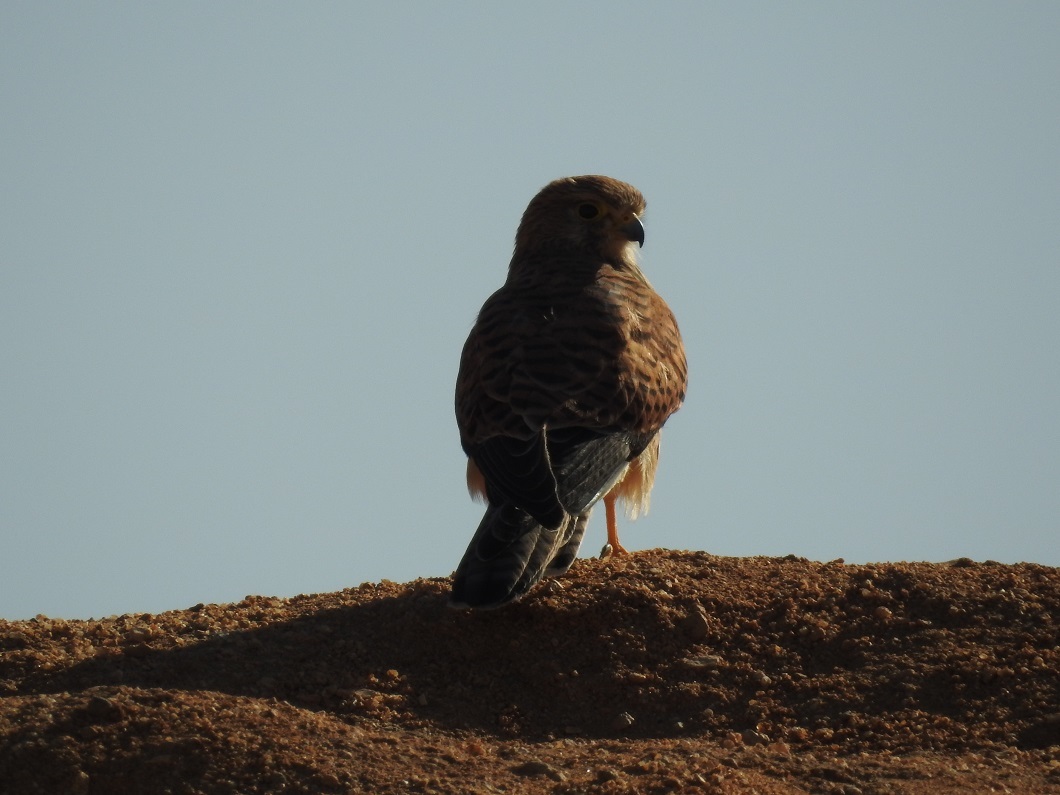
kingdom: Animalia
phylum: Chordata
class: Aves
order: Falconiformes
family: Falconidae
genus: Falco
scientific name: Falco tinnunculus
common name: Common kestrel
